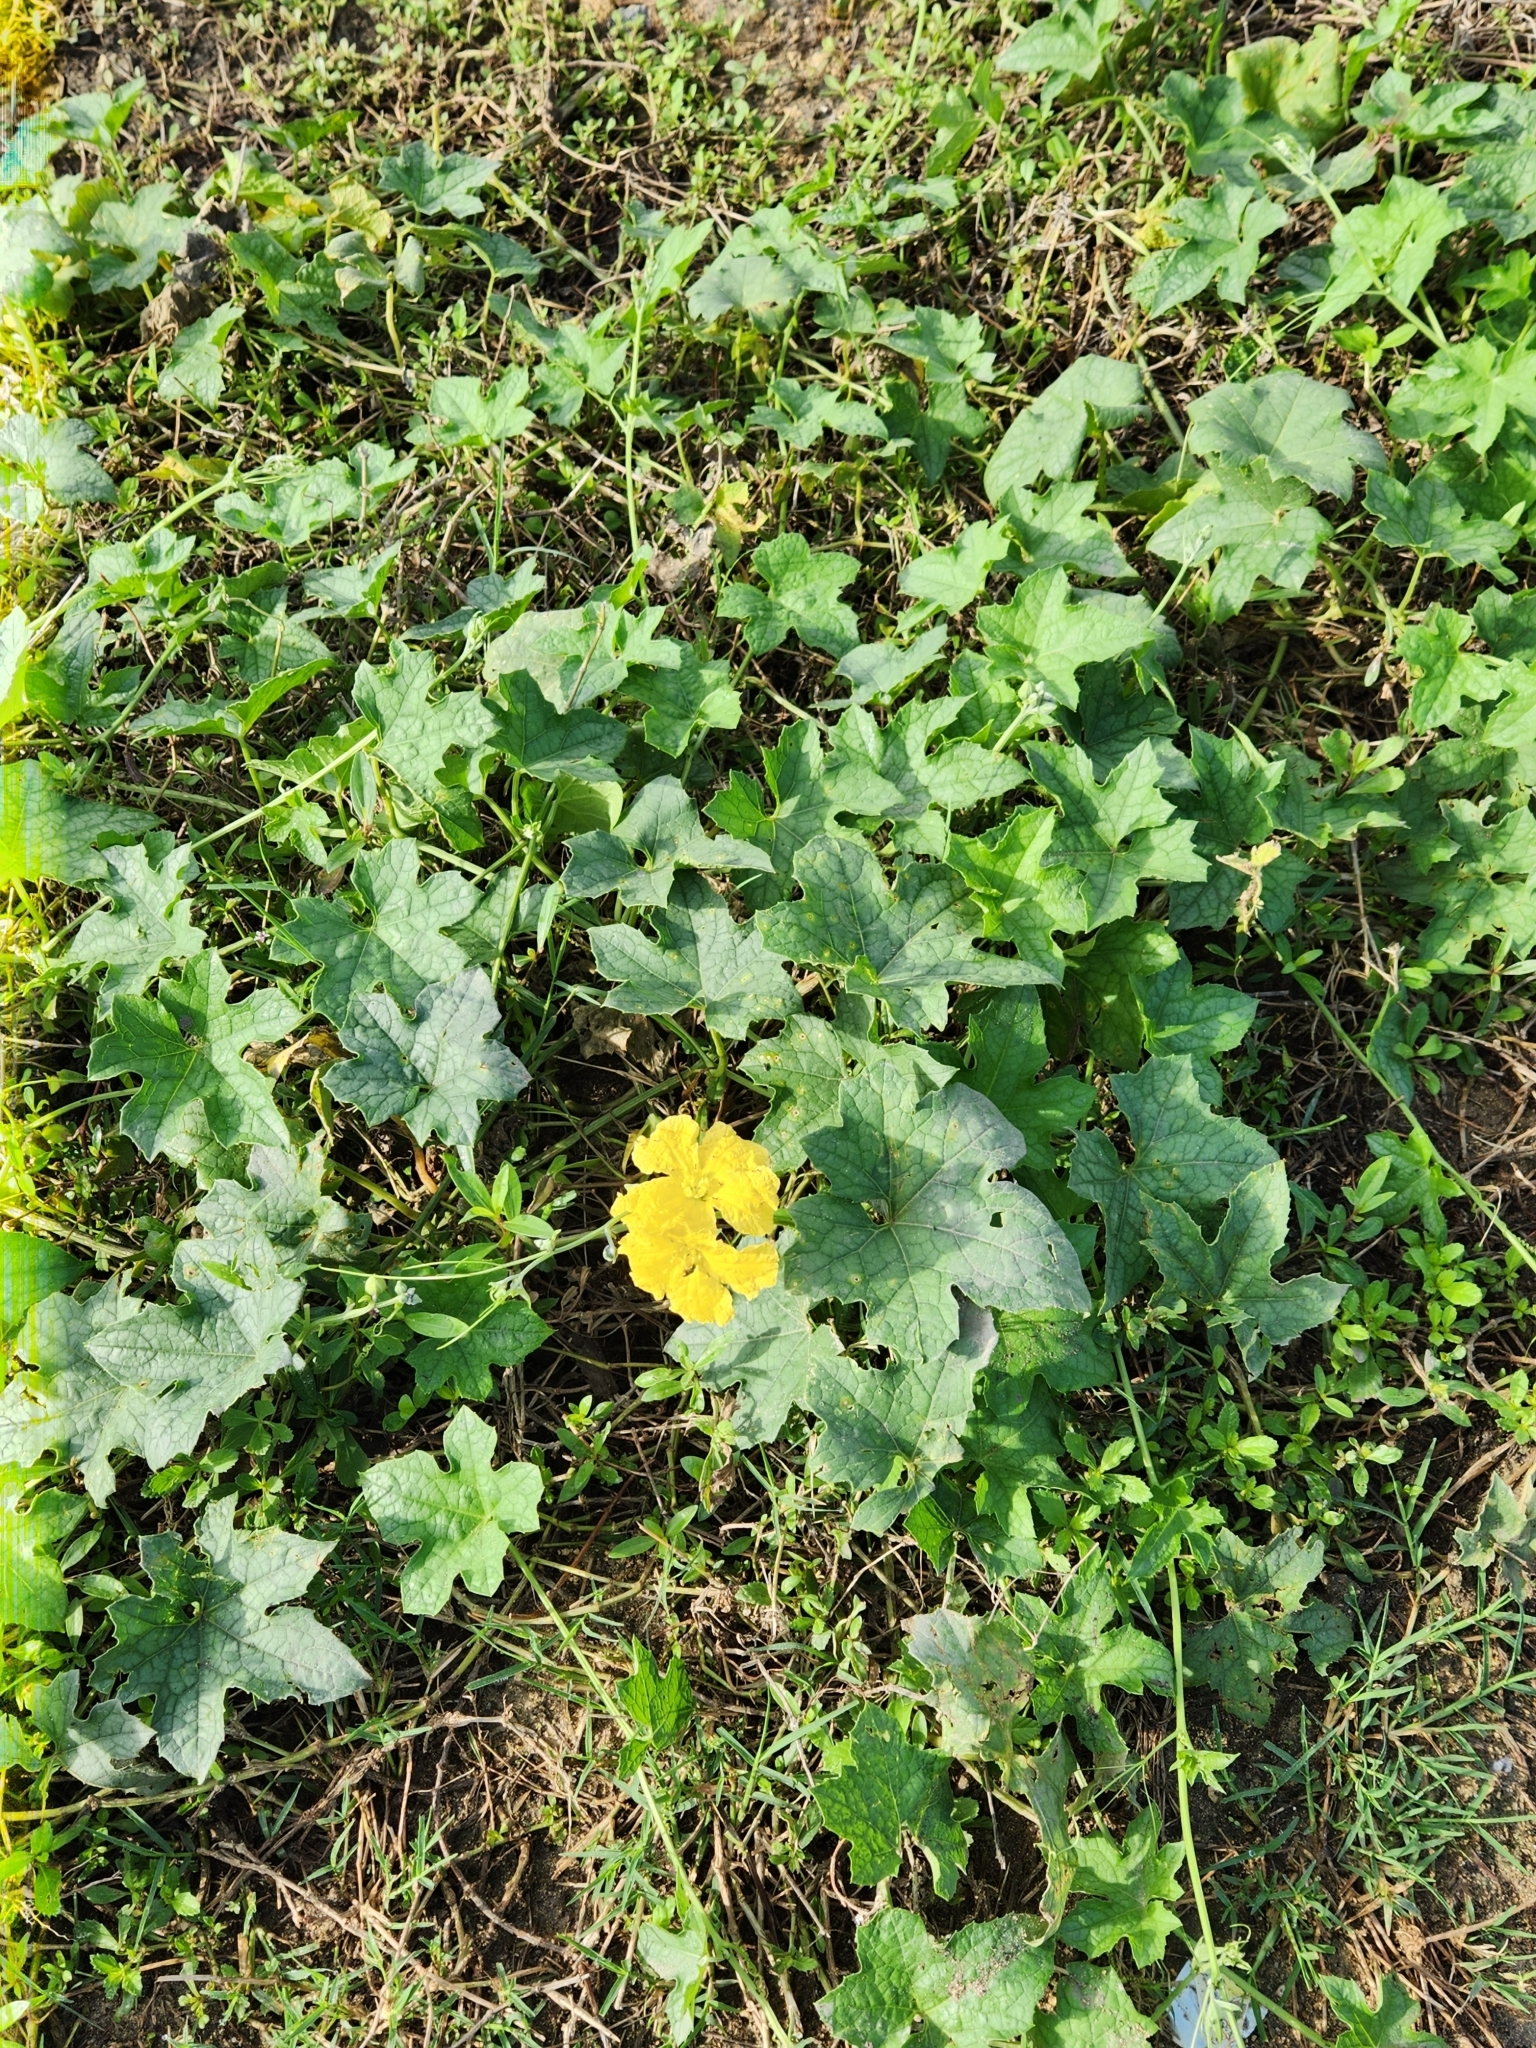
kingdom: Plantae
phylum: Tracheophyta
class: Magnoliopsida
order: Cucurbitales
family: Cucurbitaceae
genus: Luffa
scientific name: Luffa aegyptiaca
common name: Sponge gourd
